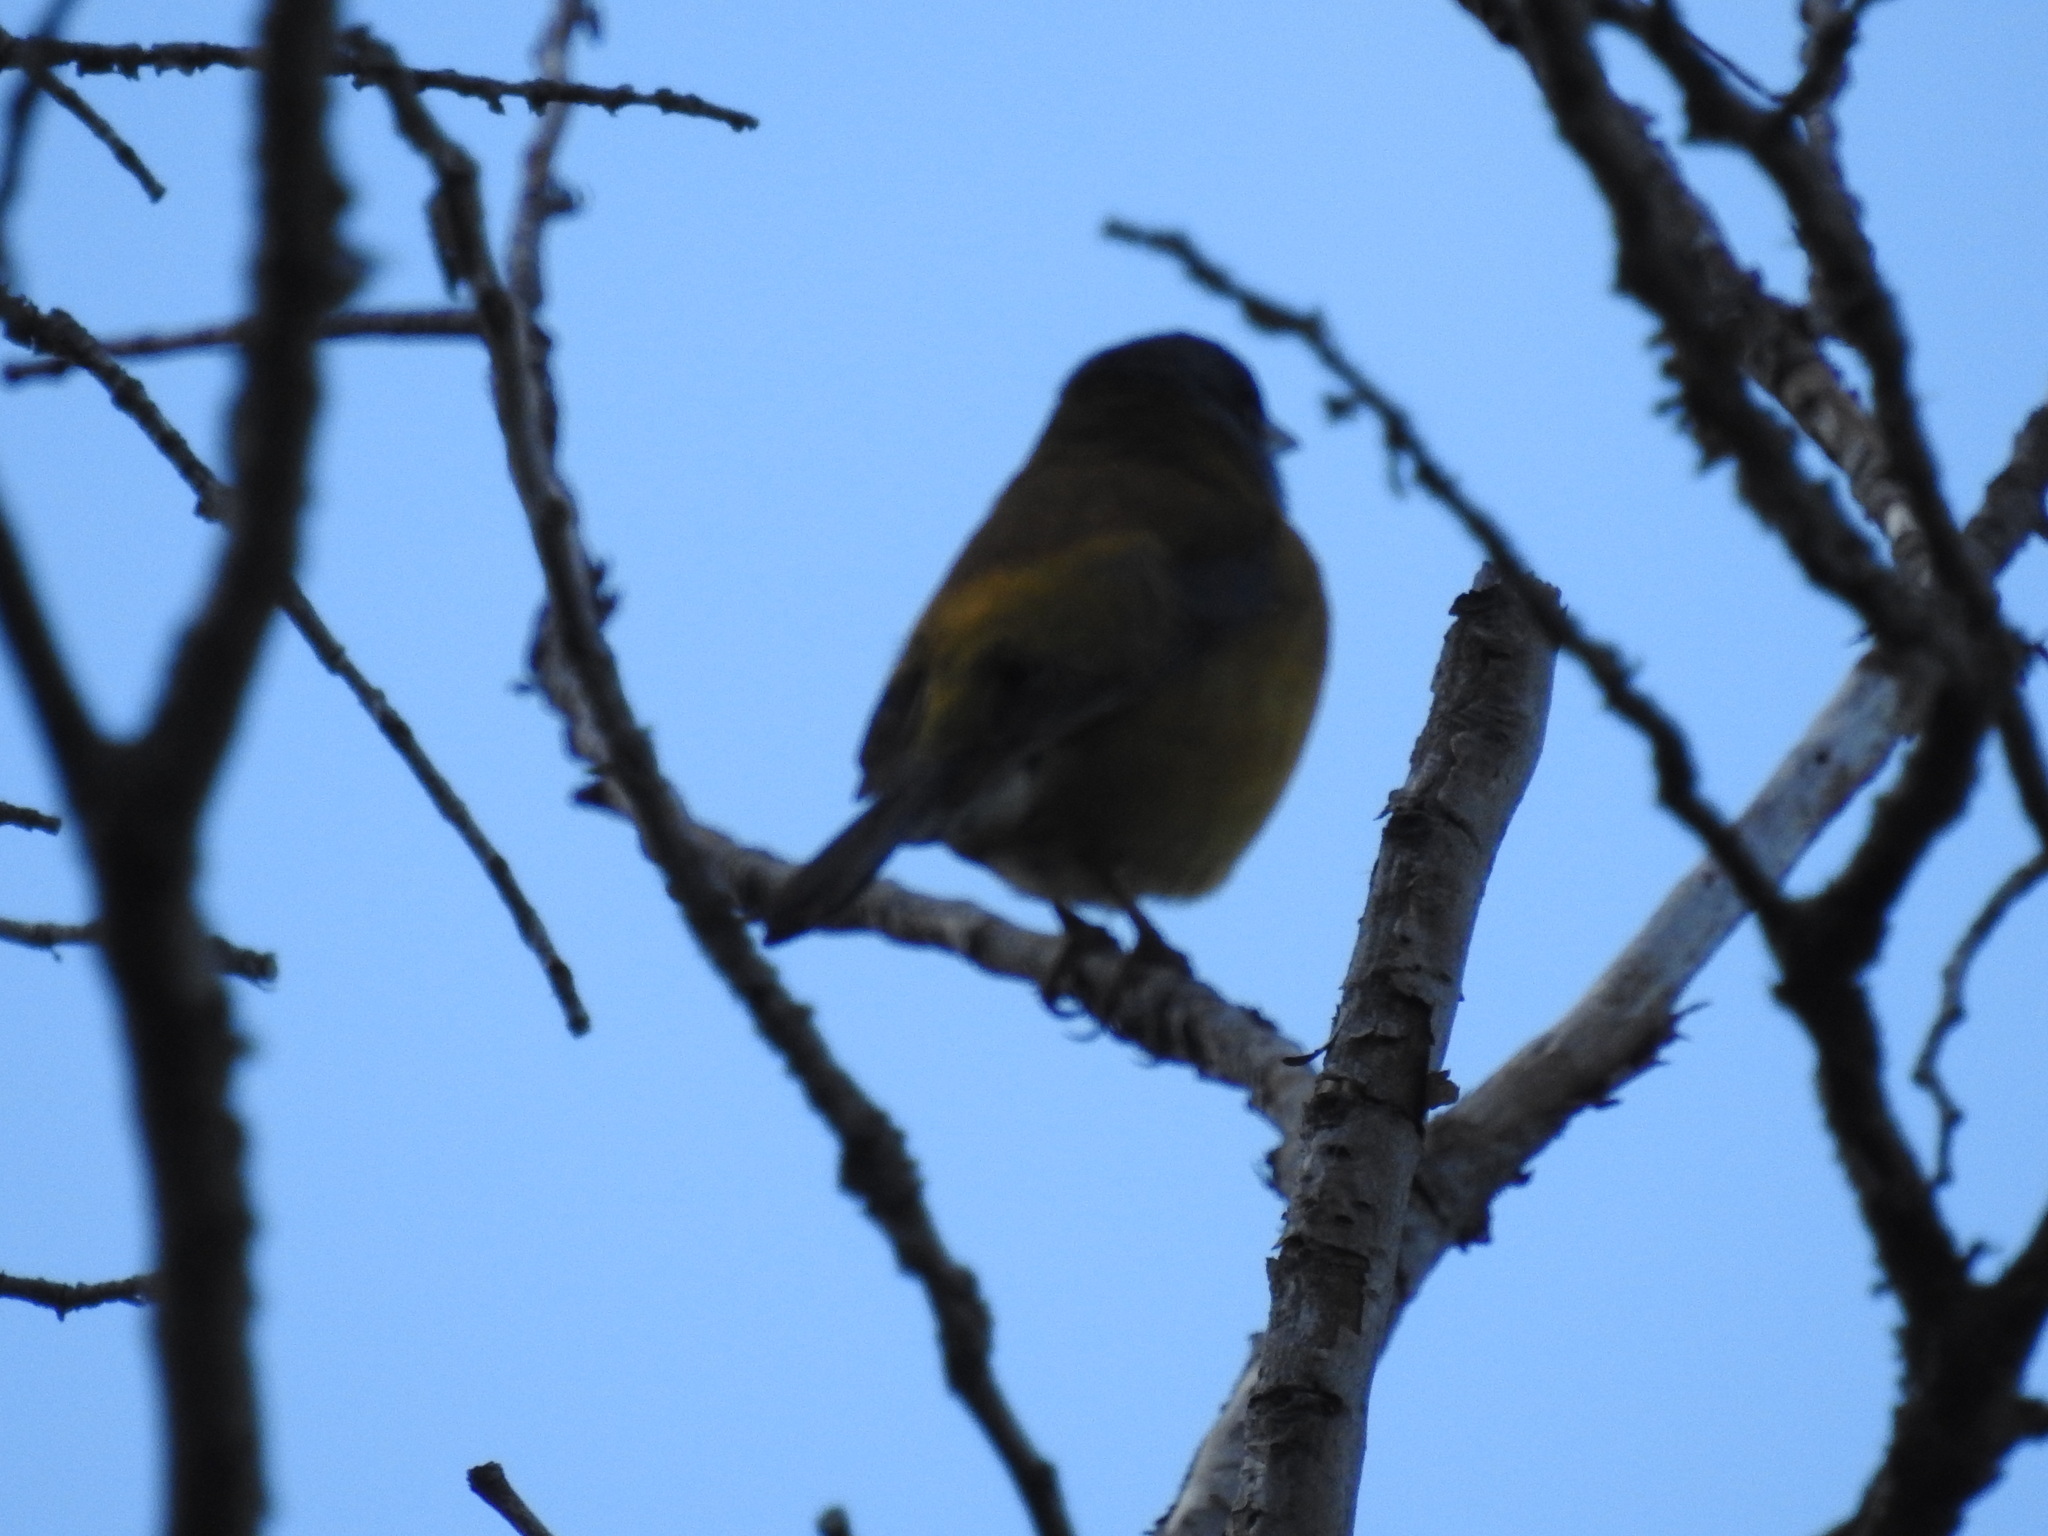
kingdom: Animalia
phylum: Chordata
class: Aves
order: Passeriformes
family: Thraupidae
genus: Phrygilus
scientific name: Phrygilus patagonicus
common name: Patagonian sierra finch
